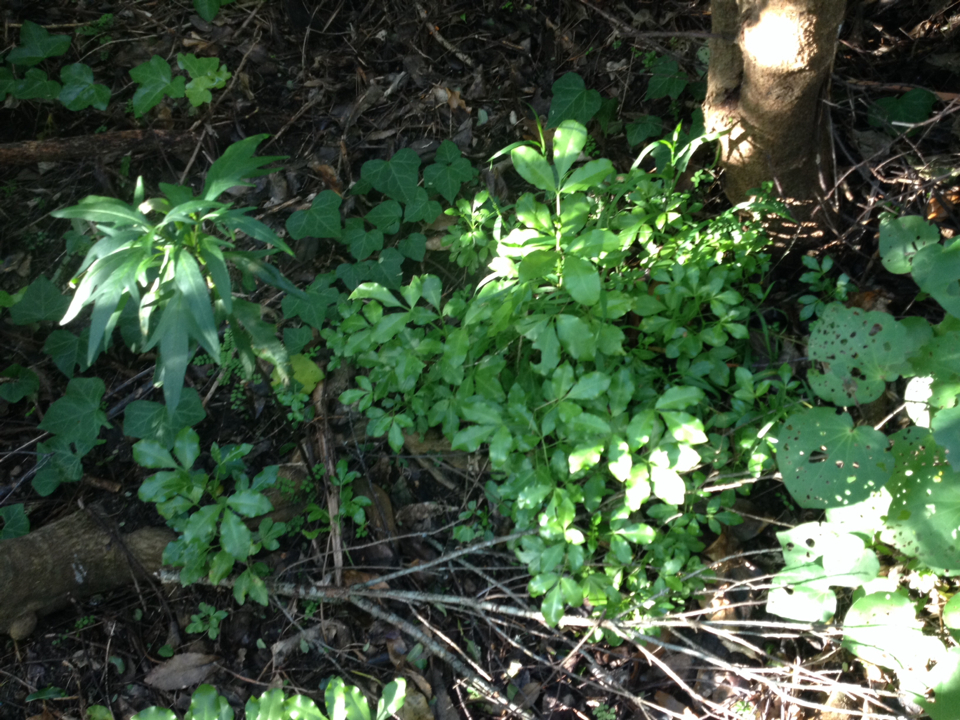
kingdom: Plantae
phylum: Tracheophyta
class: Magnoliopsida
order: Sapindales
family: Rutaceae
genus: Melicope
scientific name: Melicope ternata
